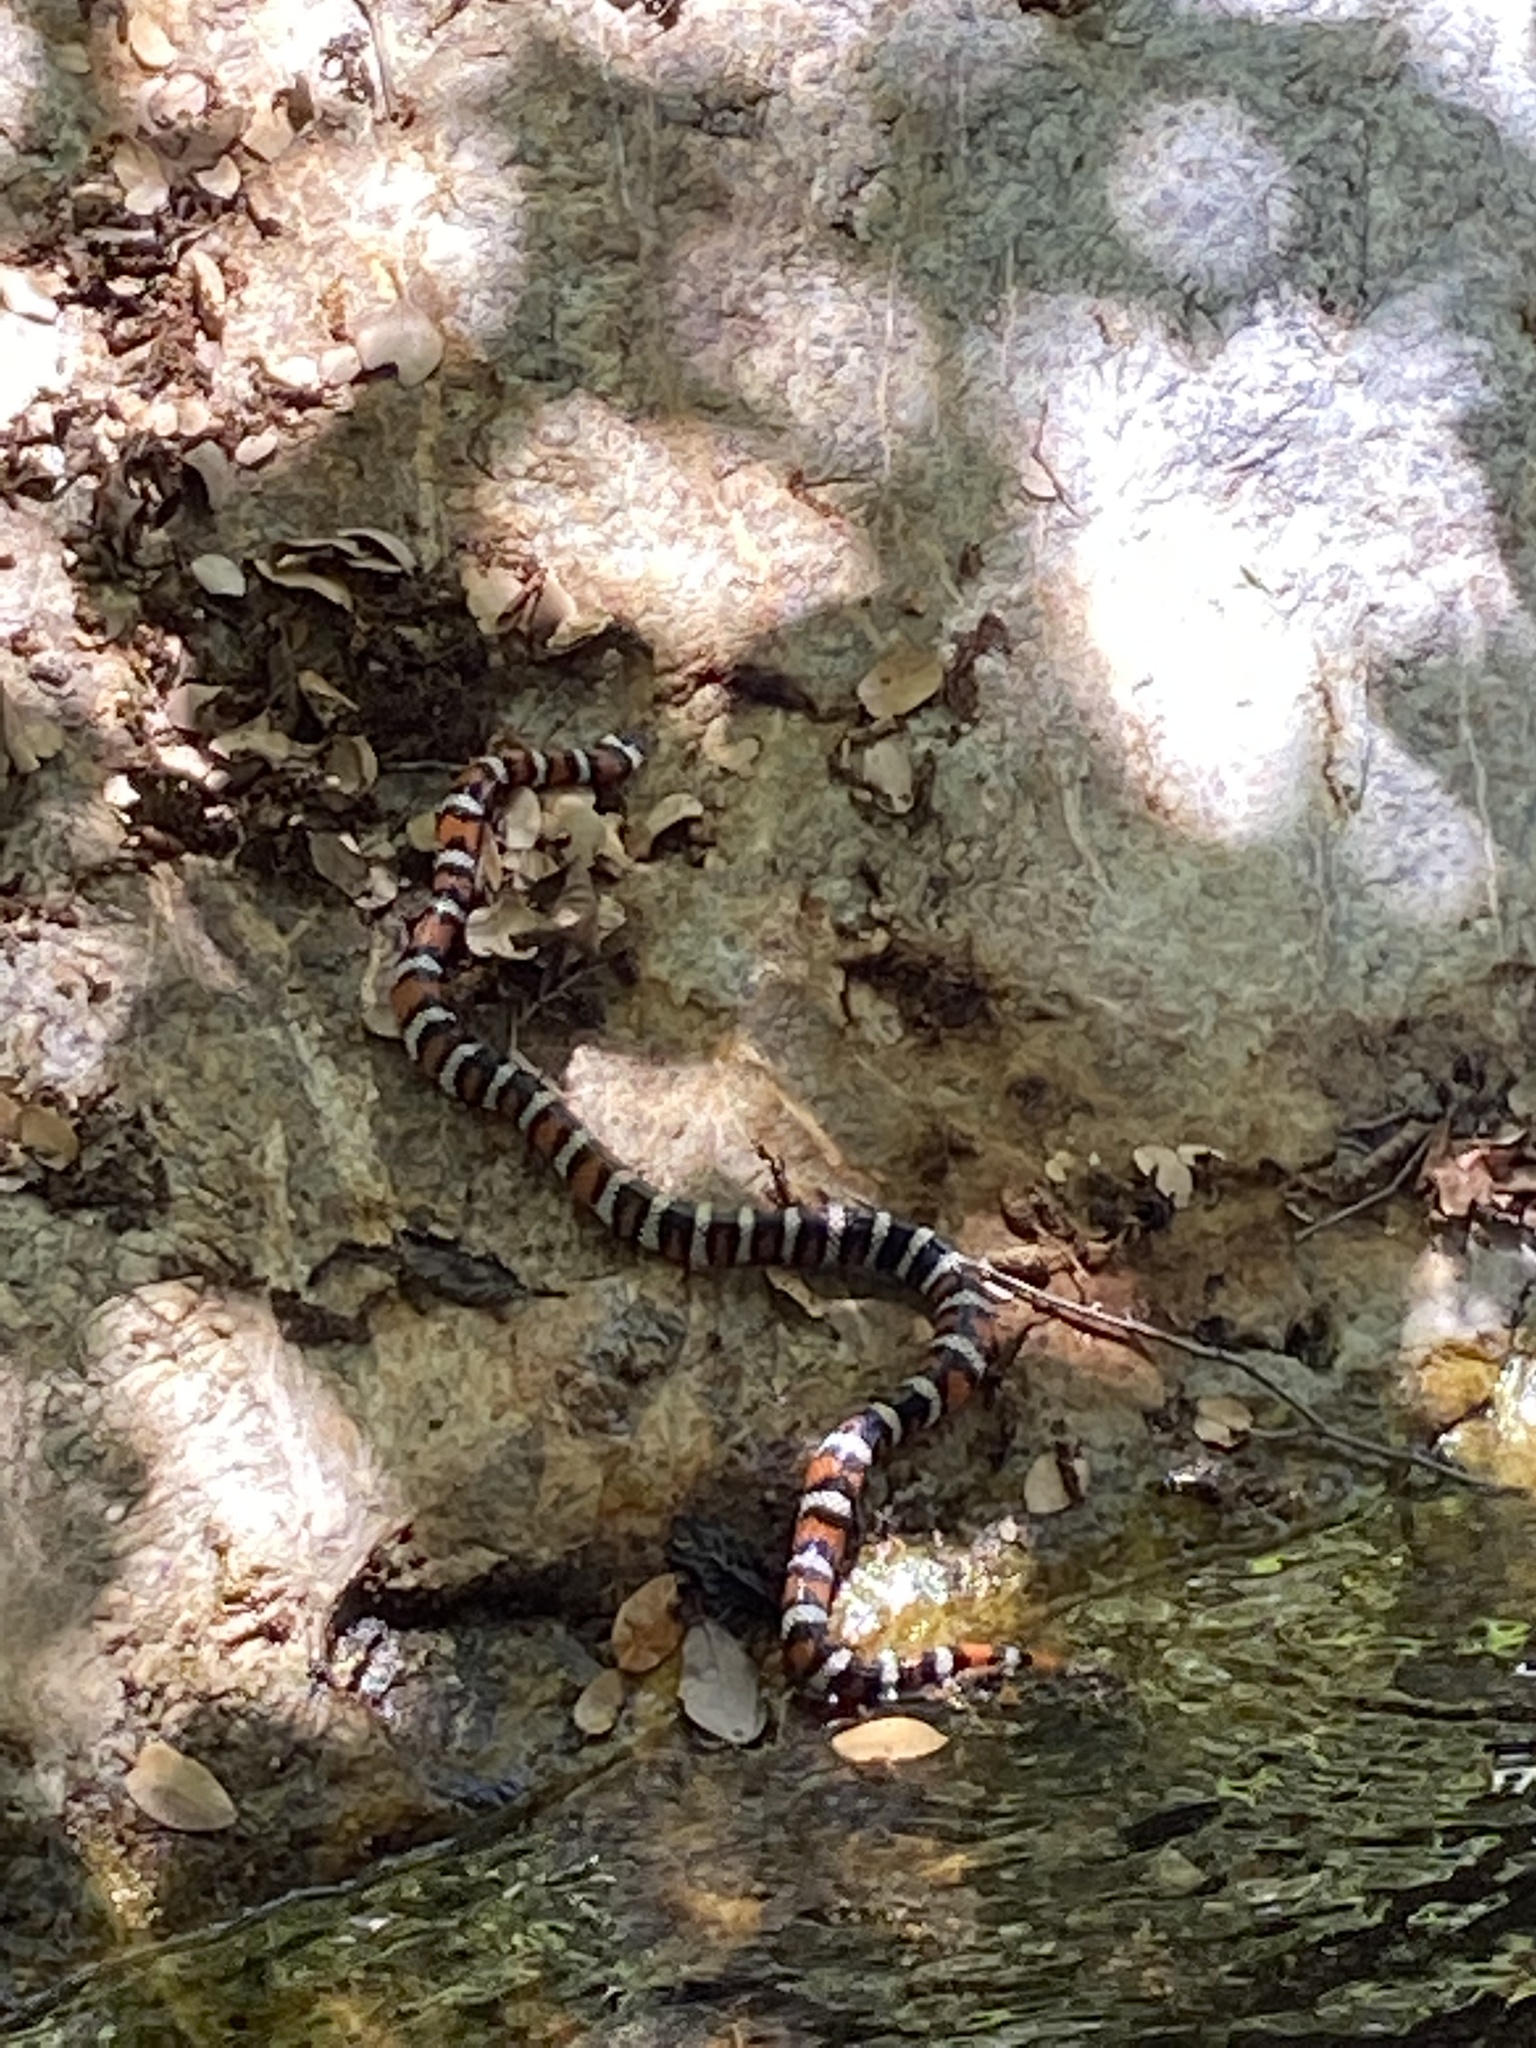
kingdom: Animalia
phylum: Chordata
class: Squamata
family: Colubridae
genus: Lampropeltis
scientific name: Lampropeltis zonata
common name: California mountain kingsnake
